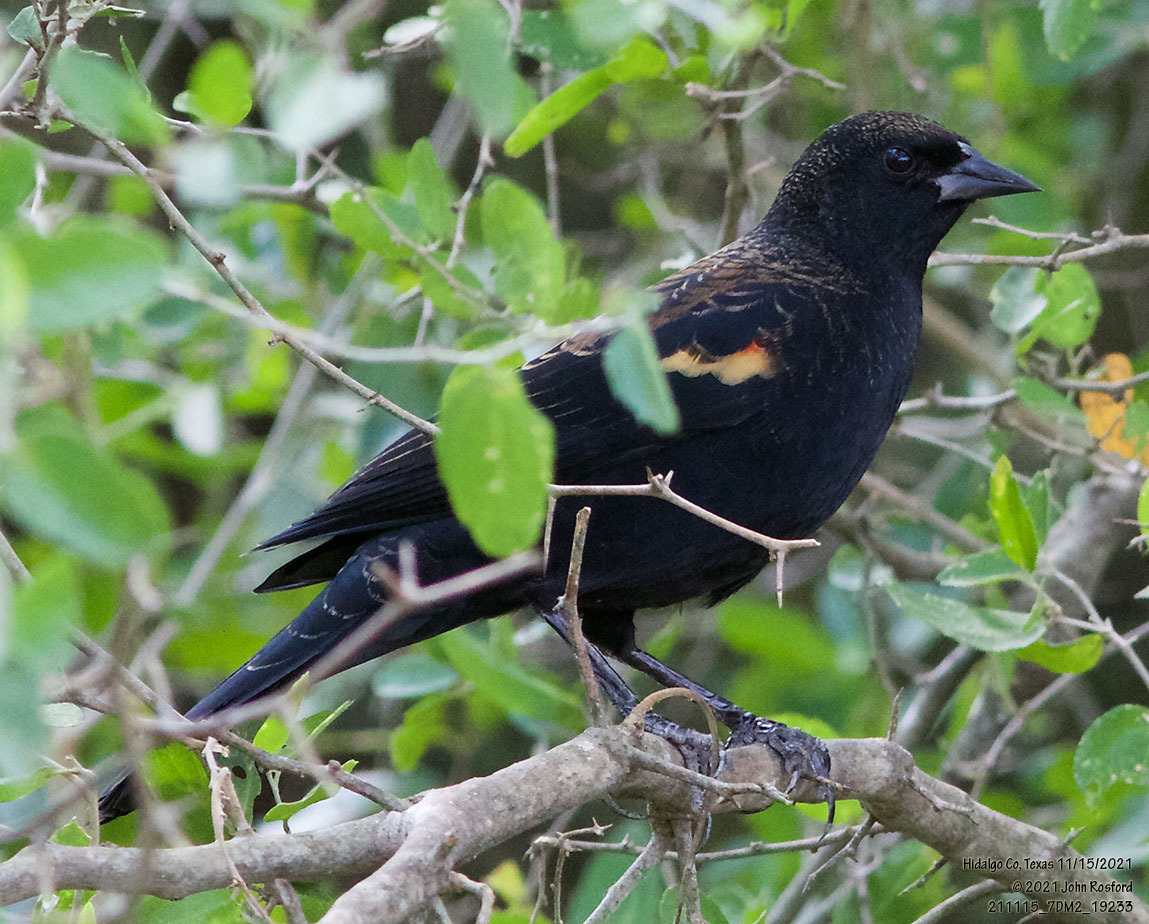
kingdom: Animalia
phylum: Chordata
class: Aves
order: Passeriformes
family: Icteridae
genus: Agelaius
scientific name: Agelaius phoeniceus
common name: Red-winged blackbird
